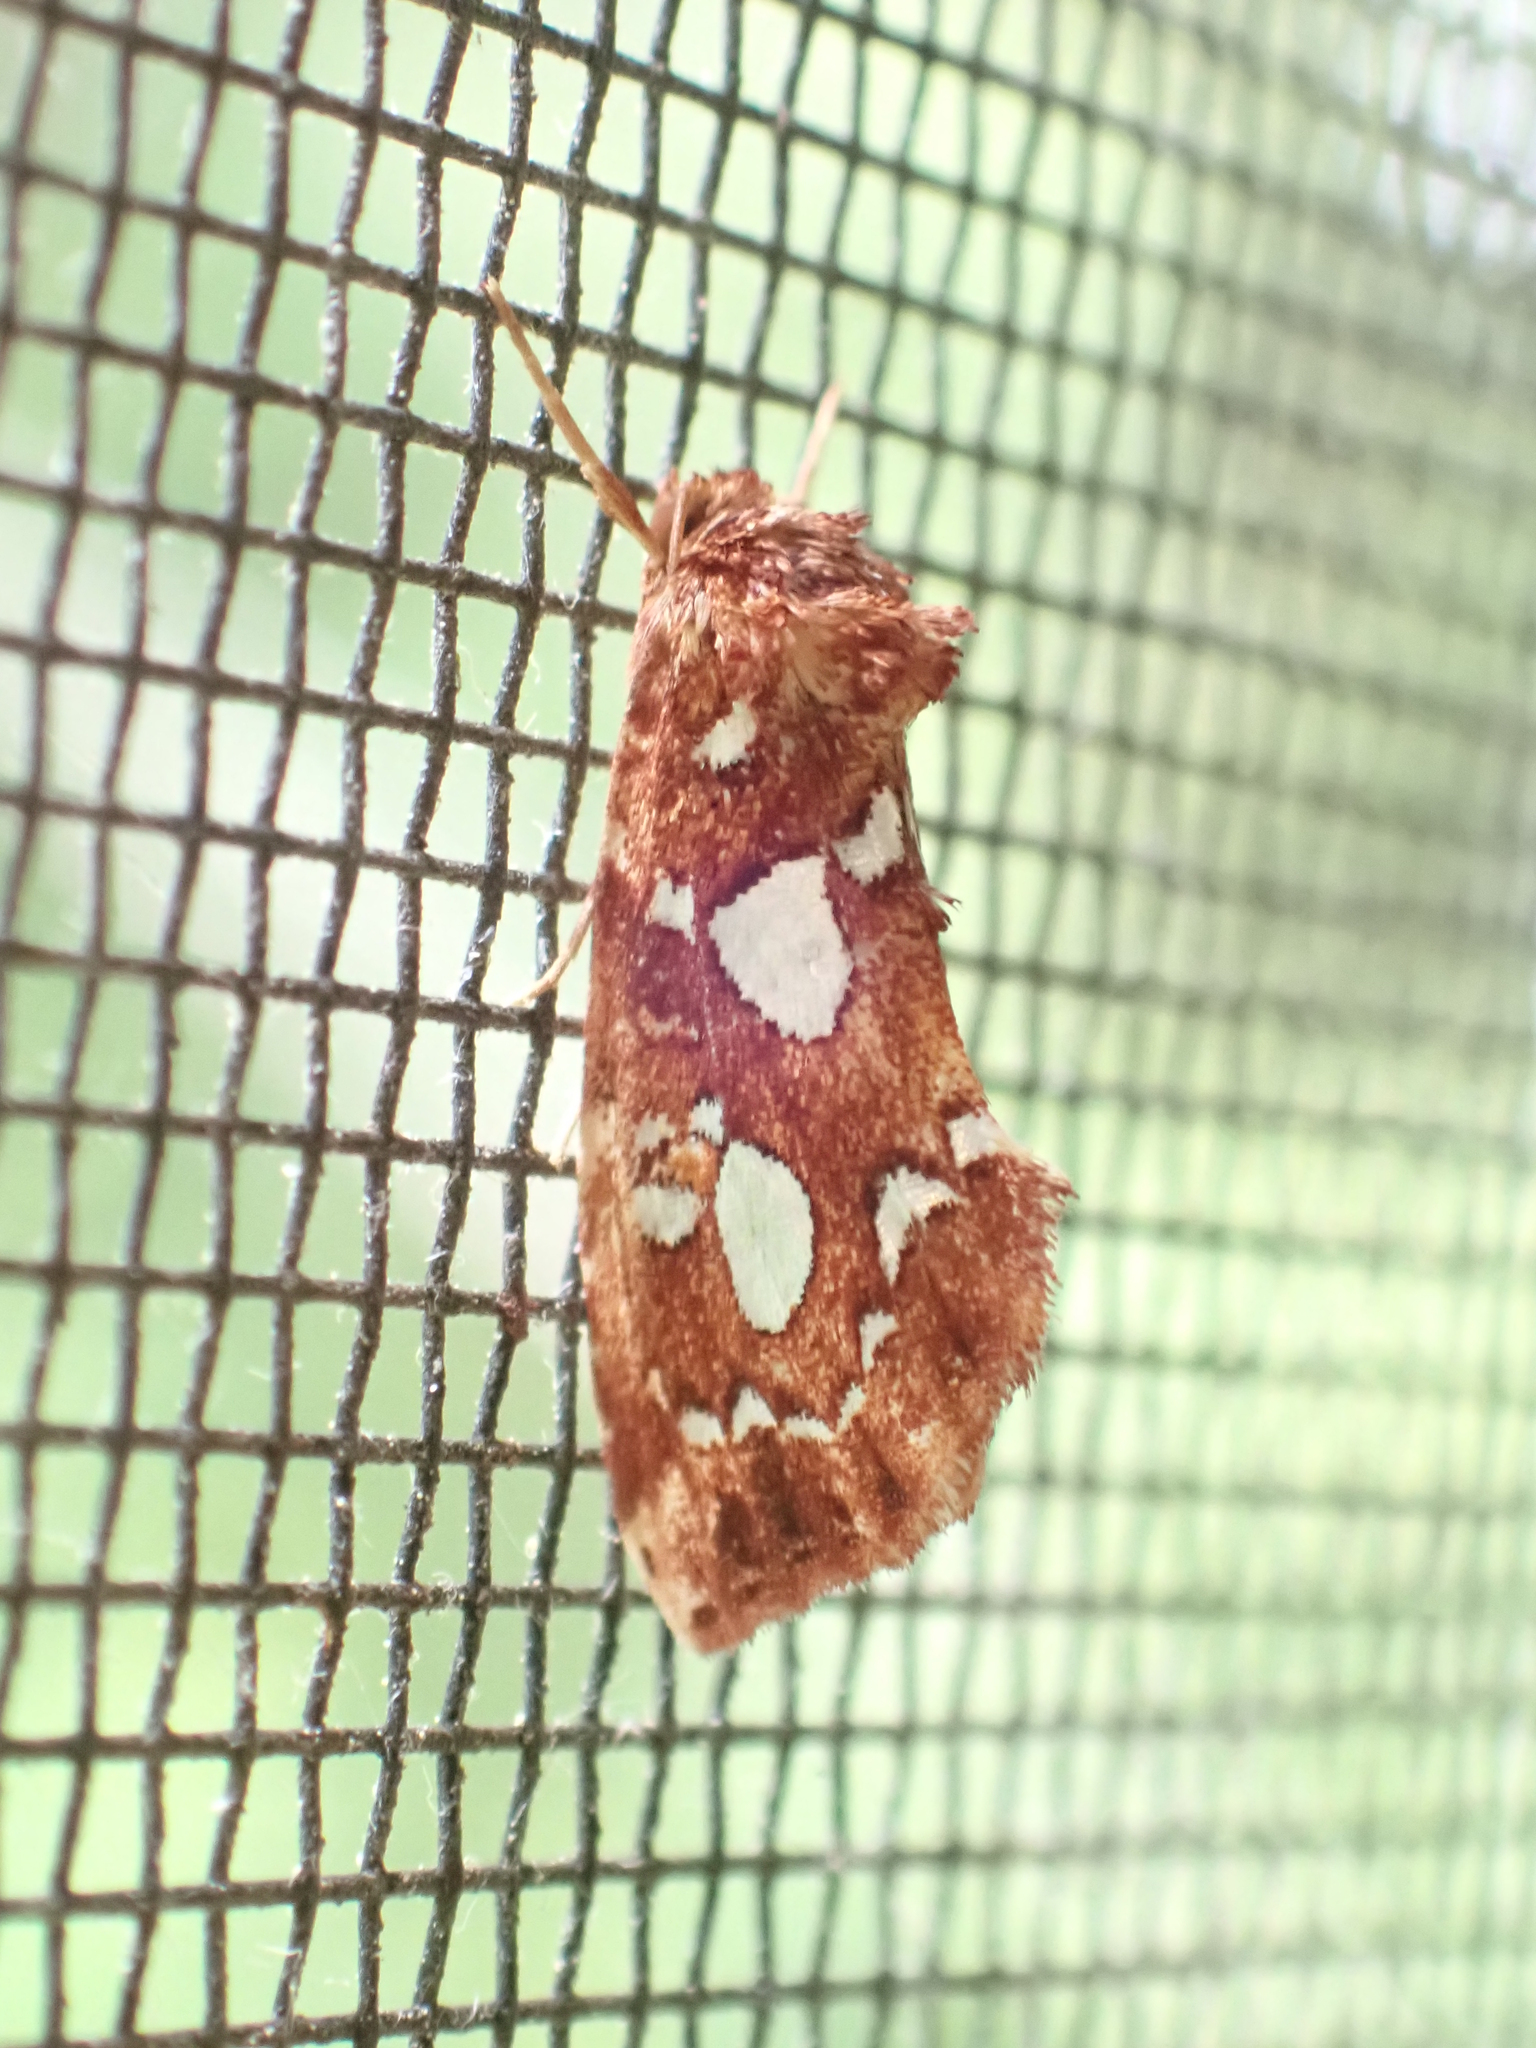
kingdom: Animalia
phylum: Arthropoda
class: Insecta
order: Lepidoptera
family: Noctuidae
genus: Callopistria
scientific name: Callopistria cordata
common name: Silver-spotted fern moth
